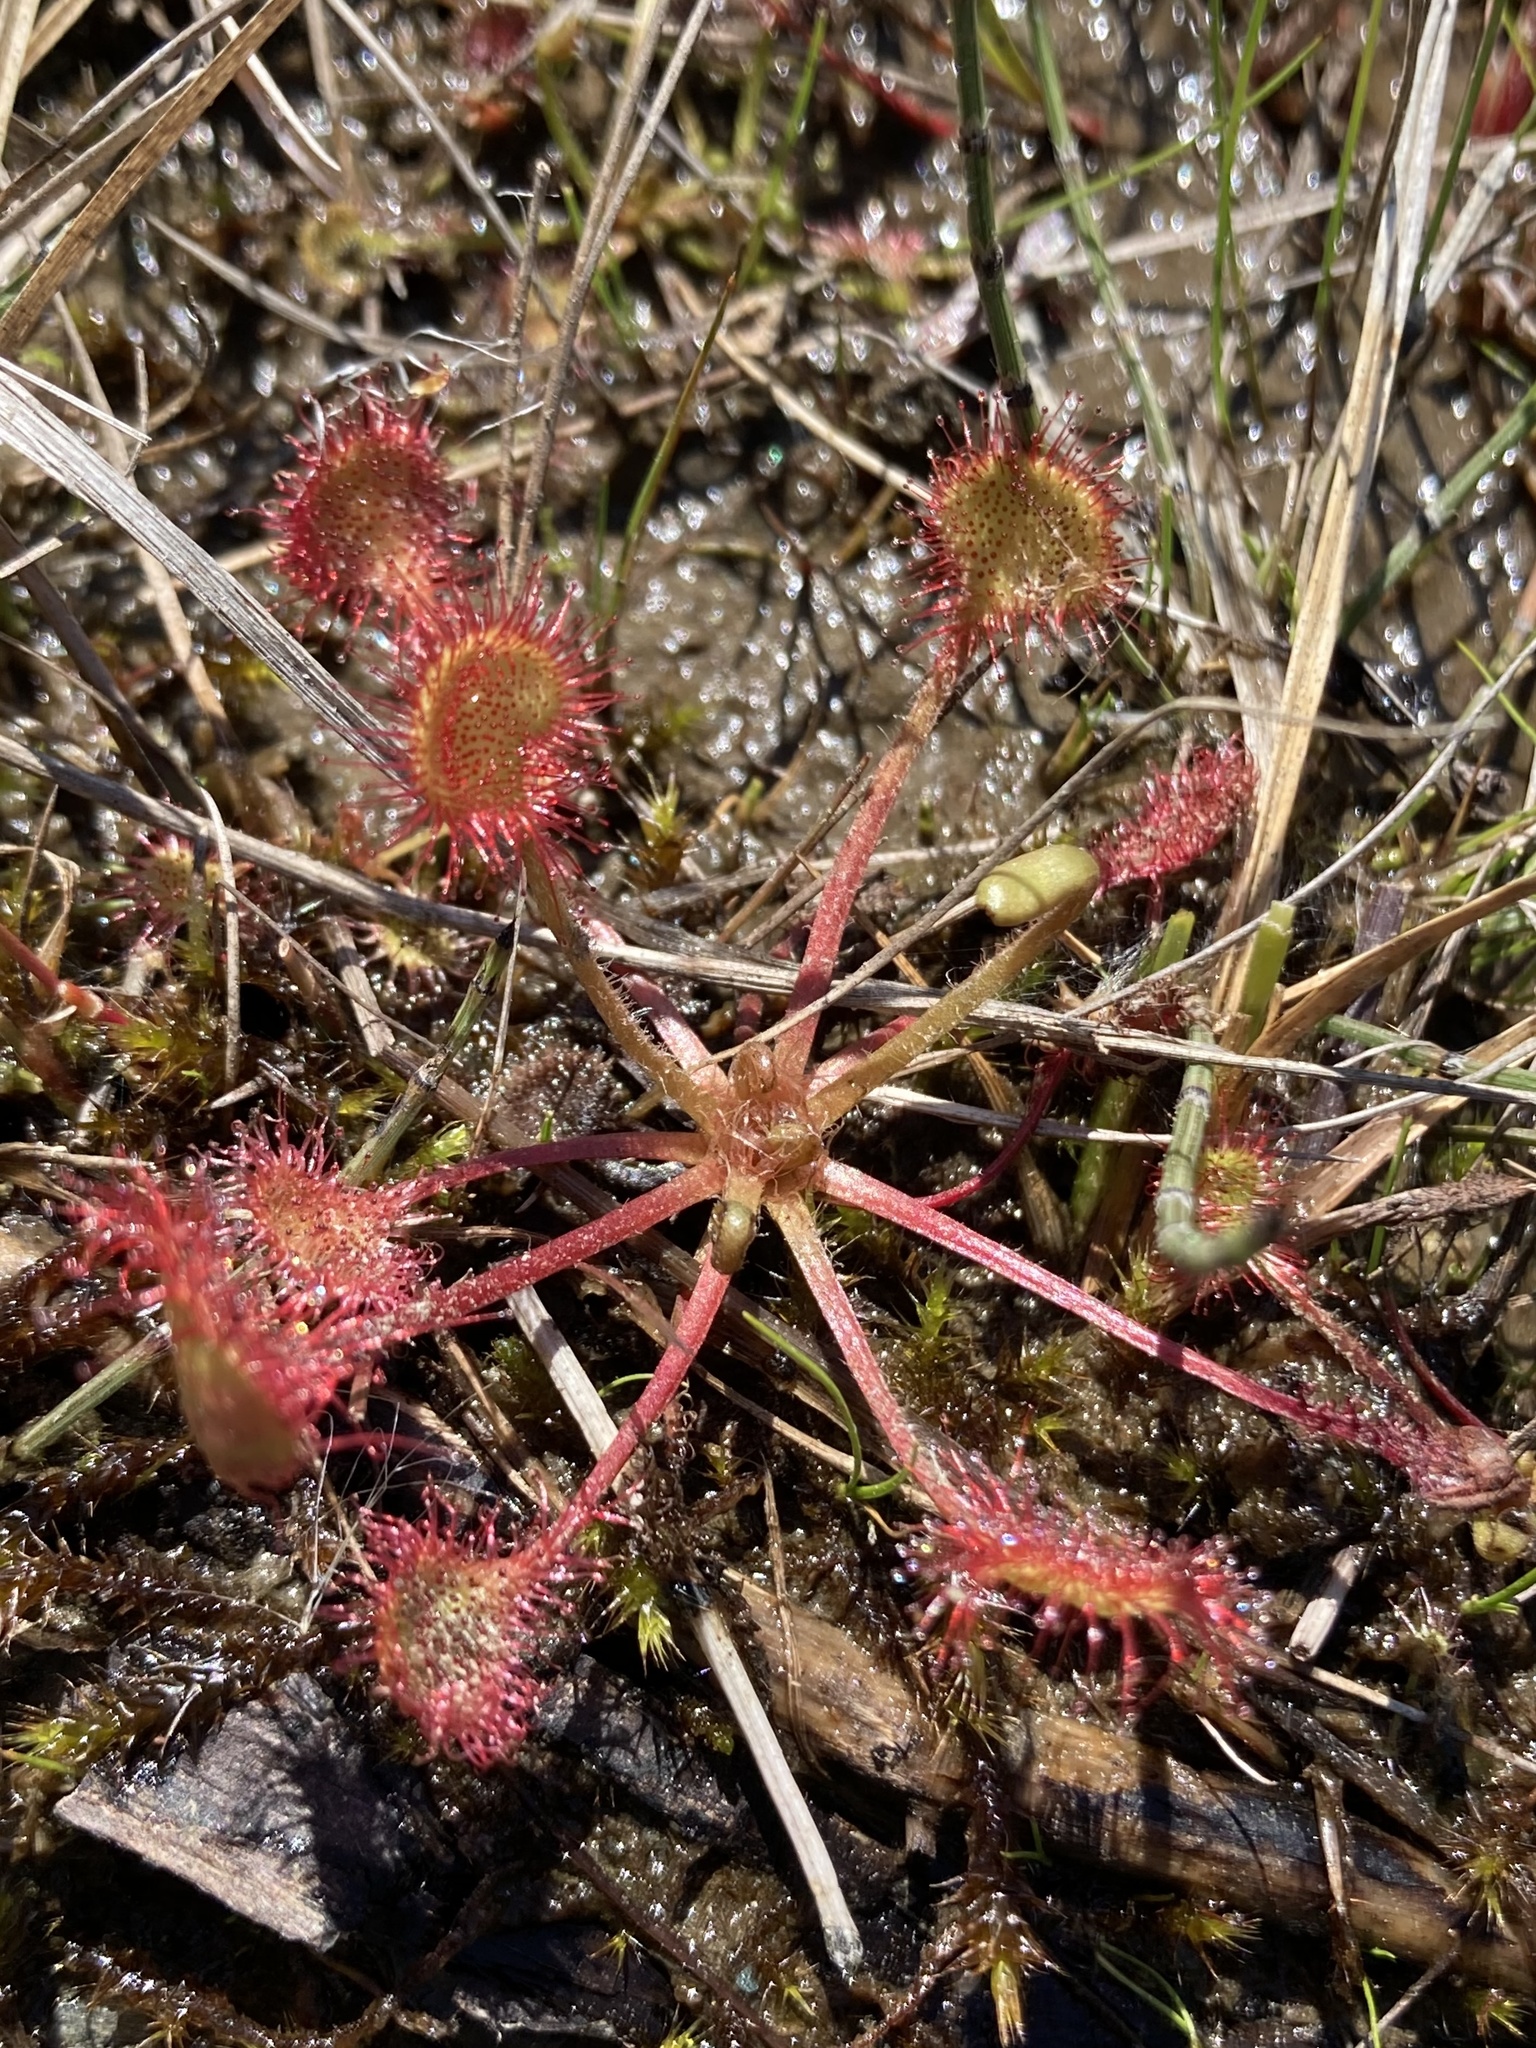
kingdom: Plantae
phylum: Tracheophyta
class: Magnoliopsida
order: Caryophyllales
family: Droseraceae
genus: Drosera
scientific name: Drosera rotundifolia
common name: Round-leaved sundew
